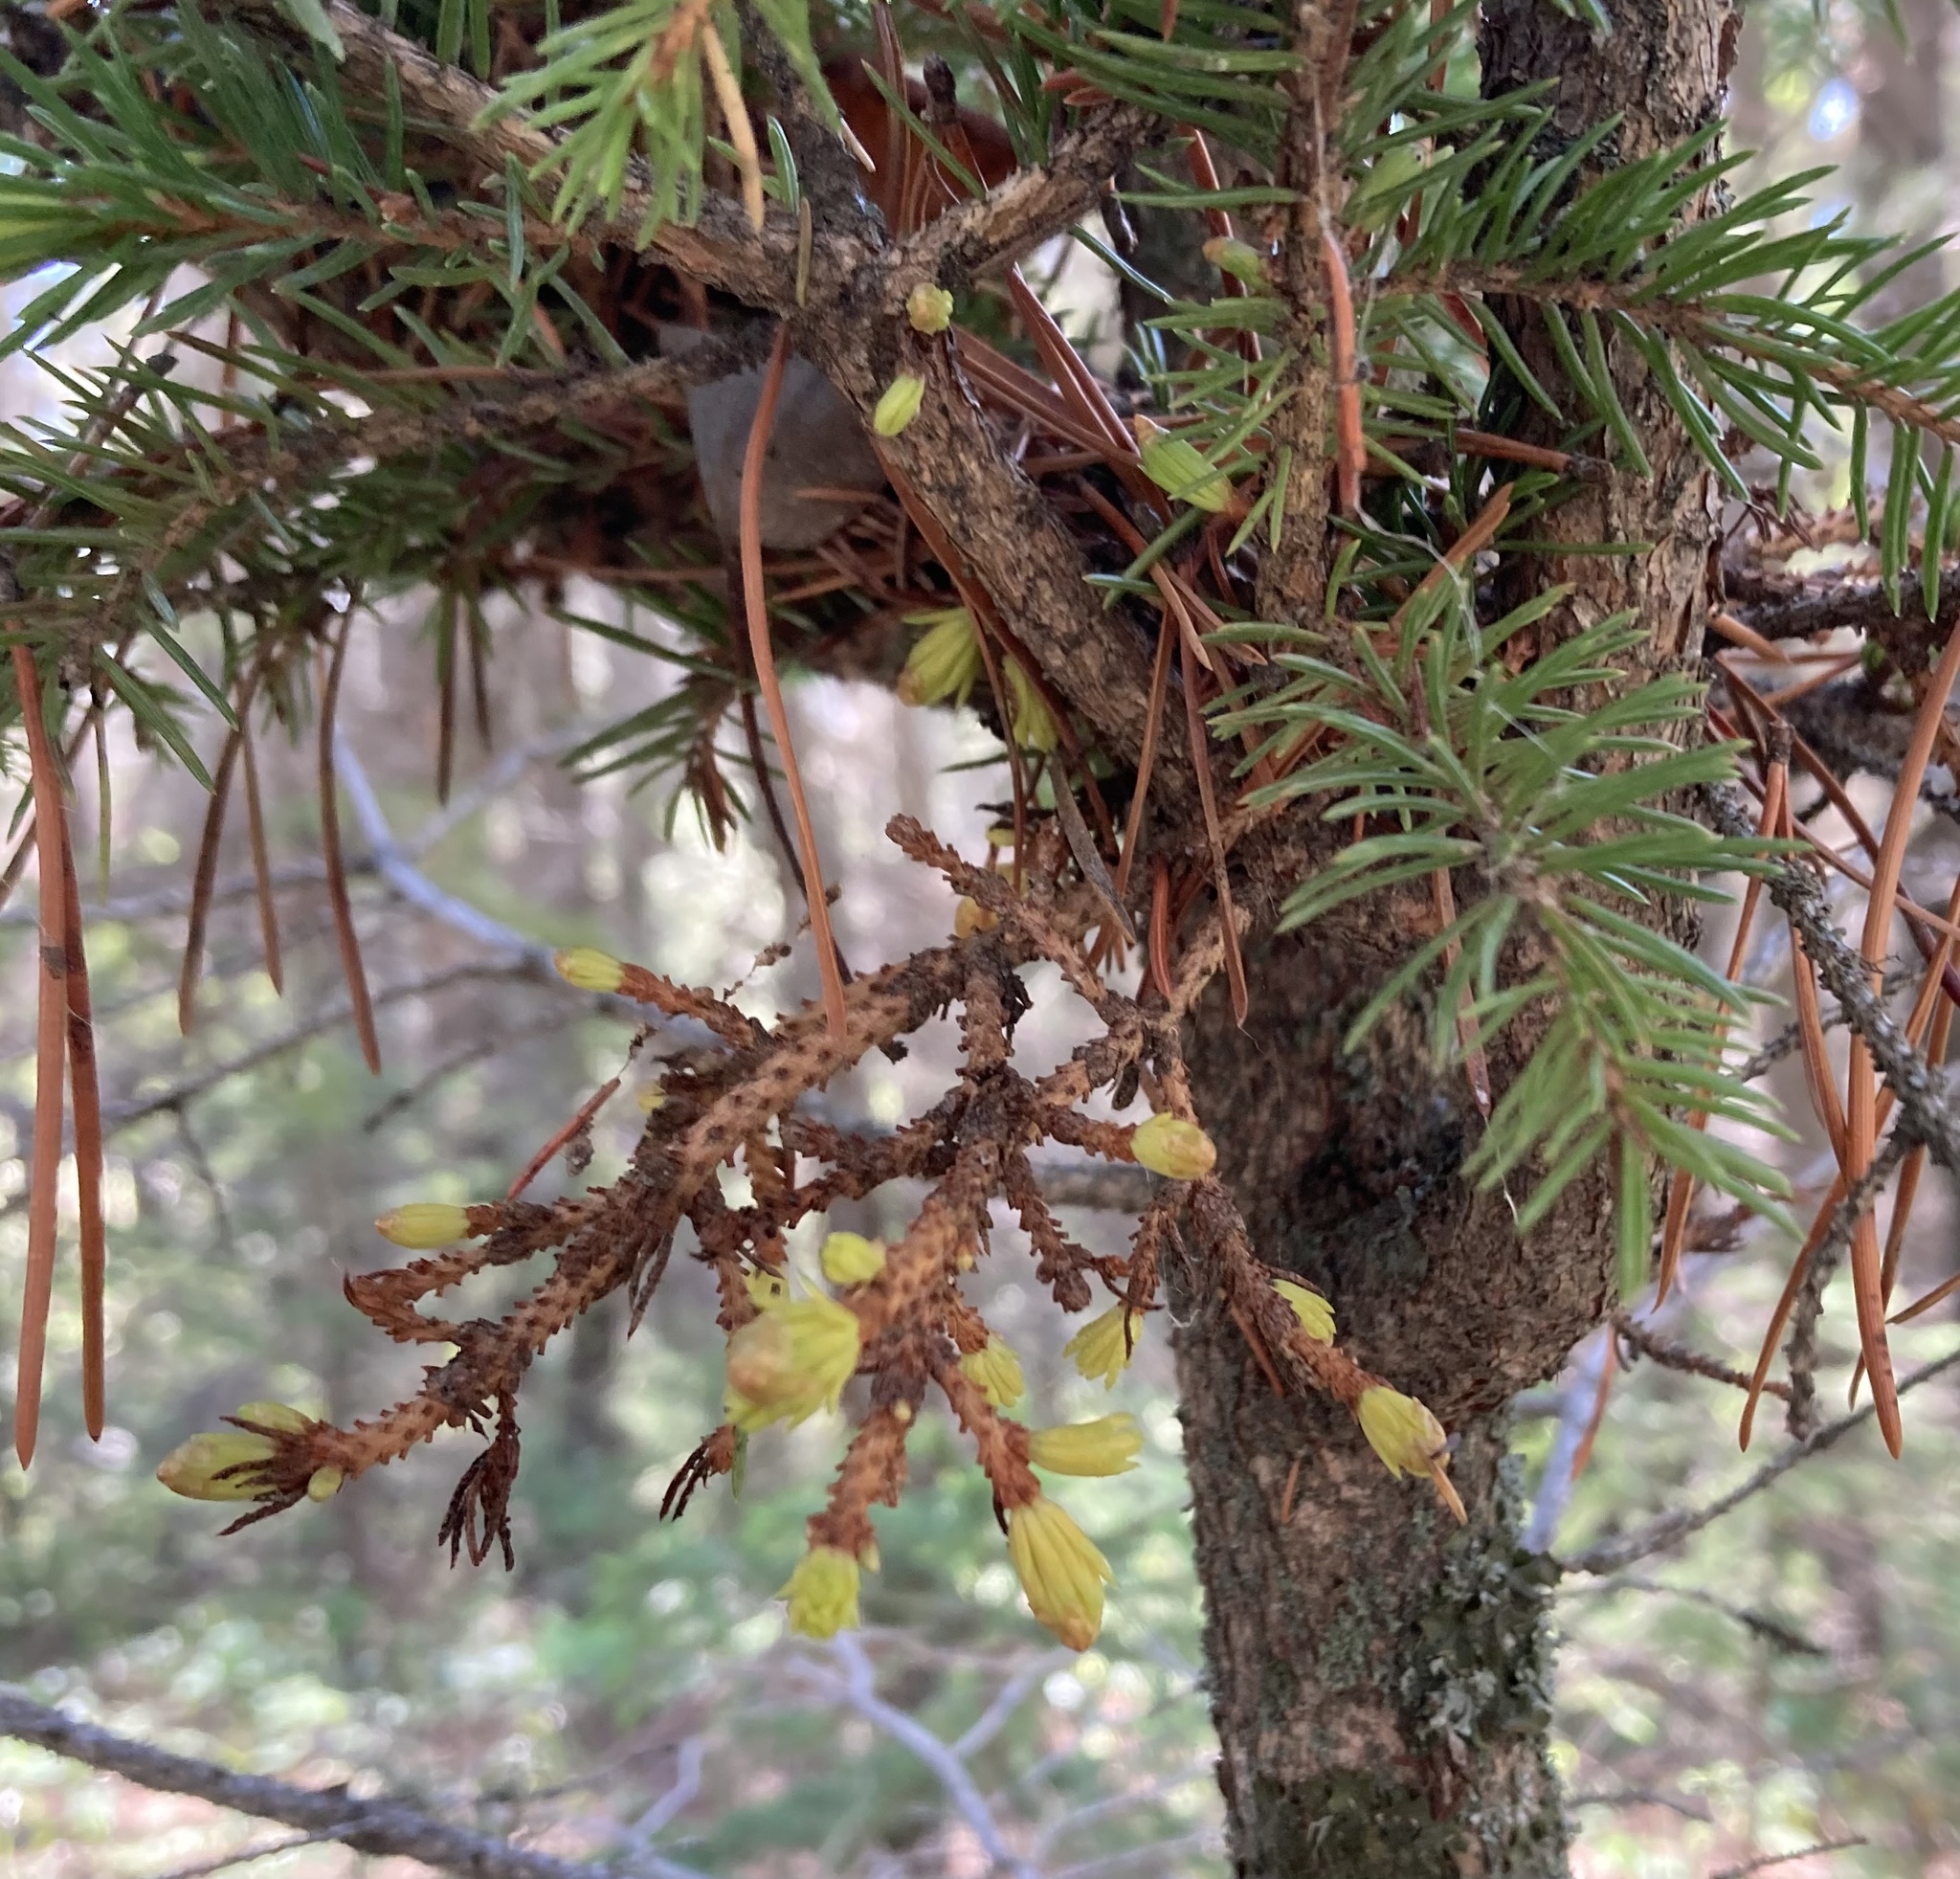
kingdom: Fungi
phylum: Basidiomycota
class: Pucciniomycetes
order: Pucciniales
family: Coleosporiaceae
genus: Chrysomyxa
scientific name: Chrysomyxa arctostaphyli
